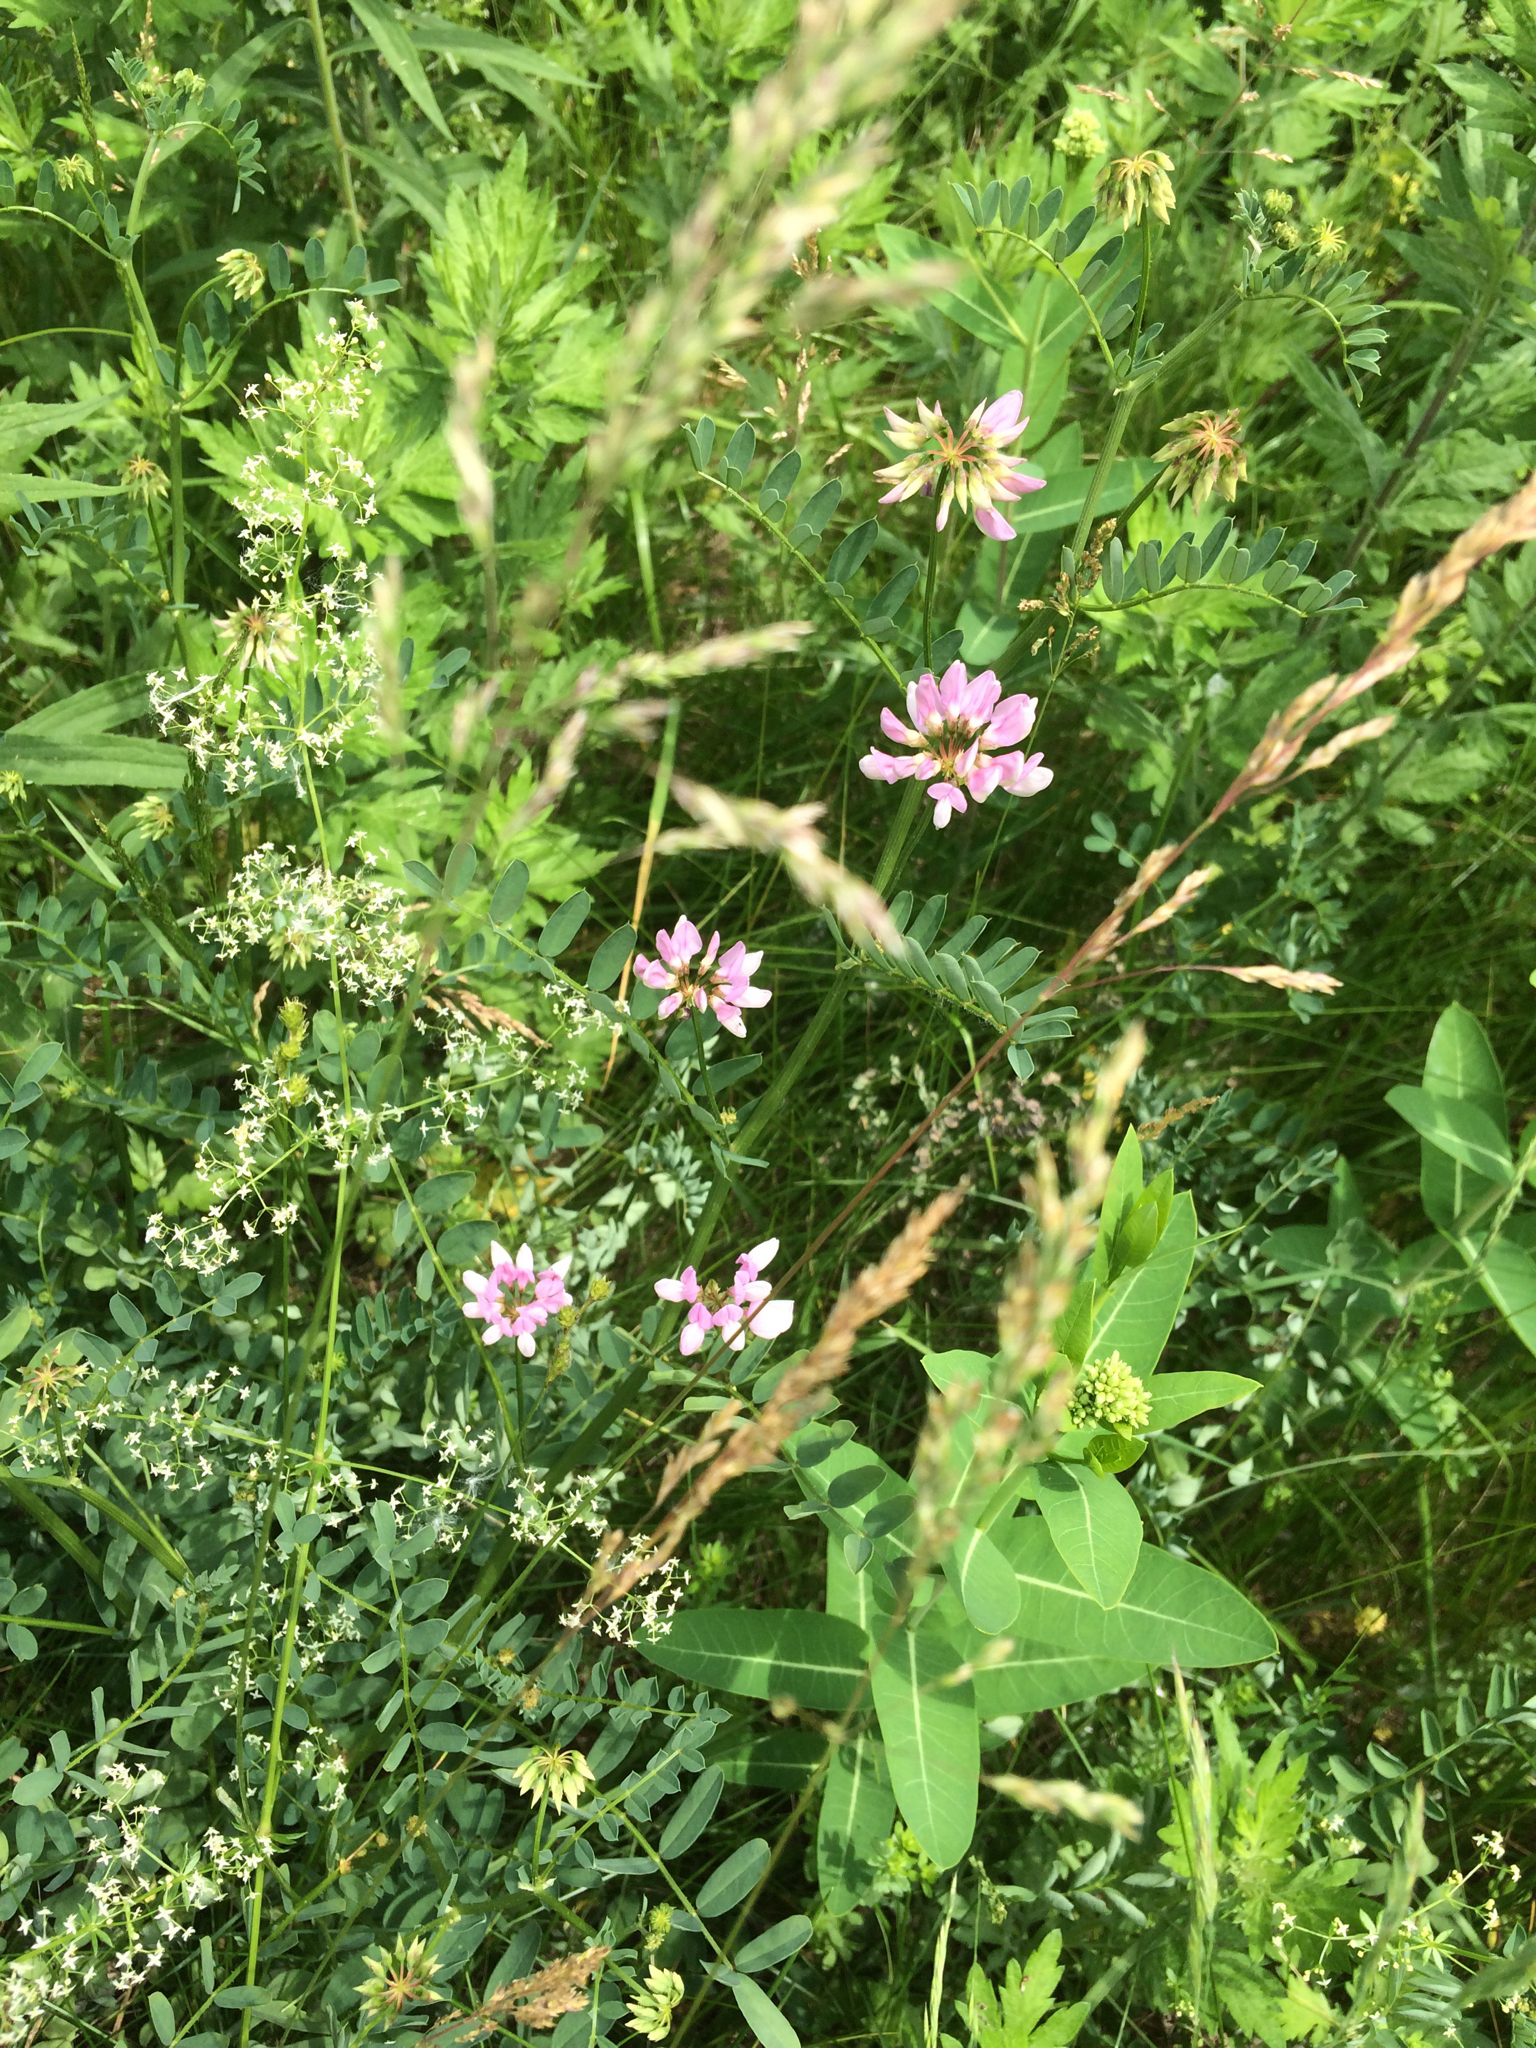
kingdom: Plantae
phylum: Tracheophyta
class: Magnoliopsida
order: Fabales
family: Fabaceae
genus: Coronilla
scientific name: Coronilla varia
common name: Crownvetch
